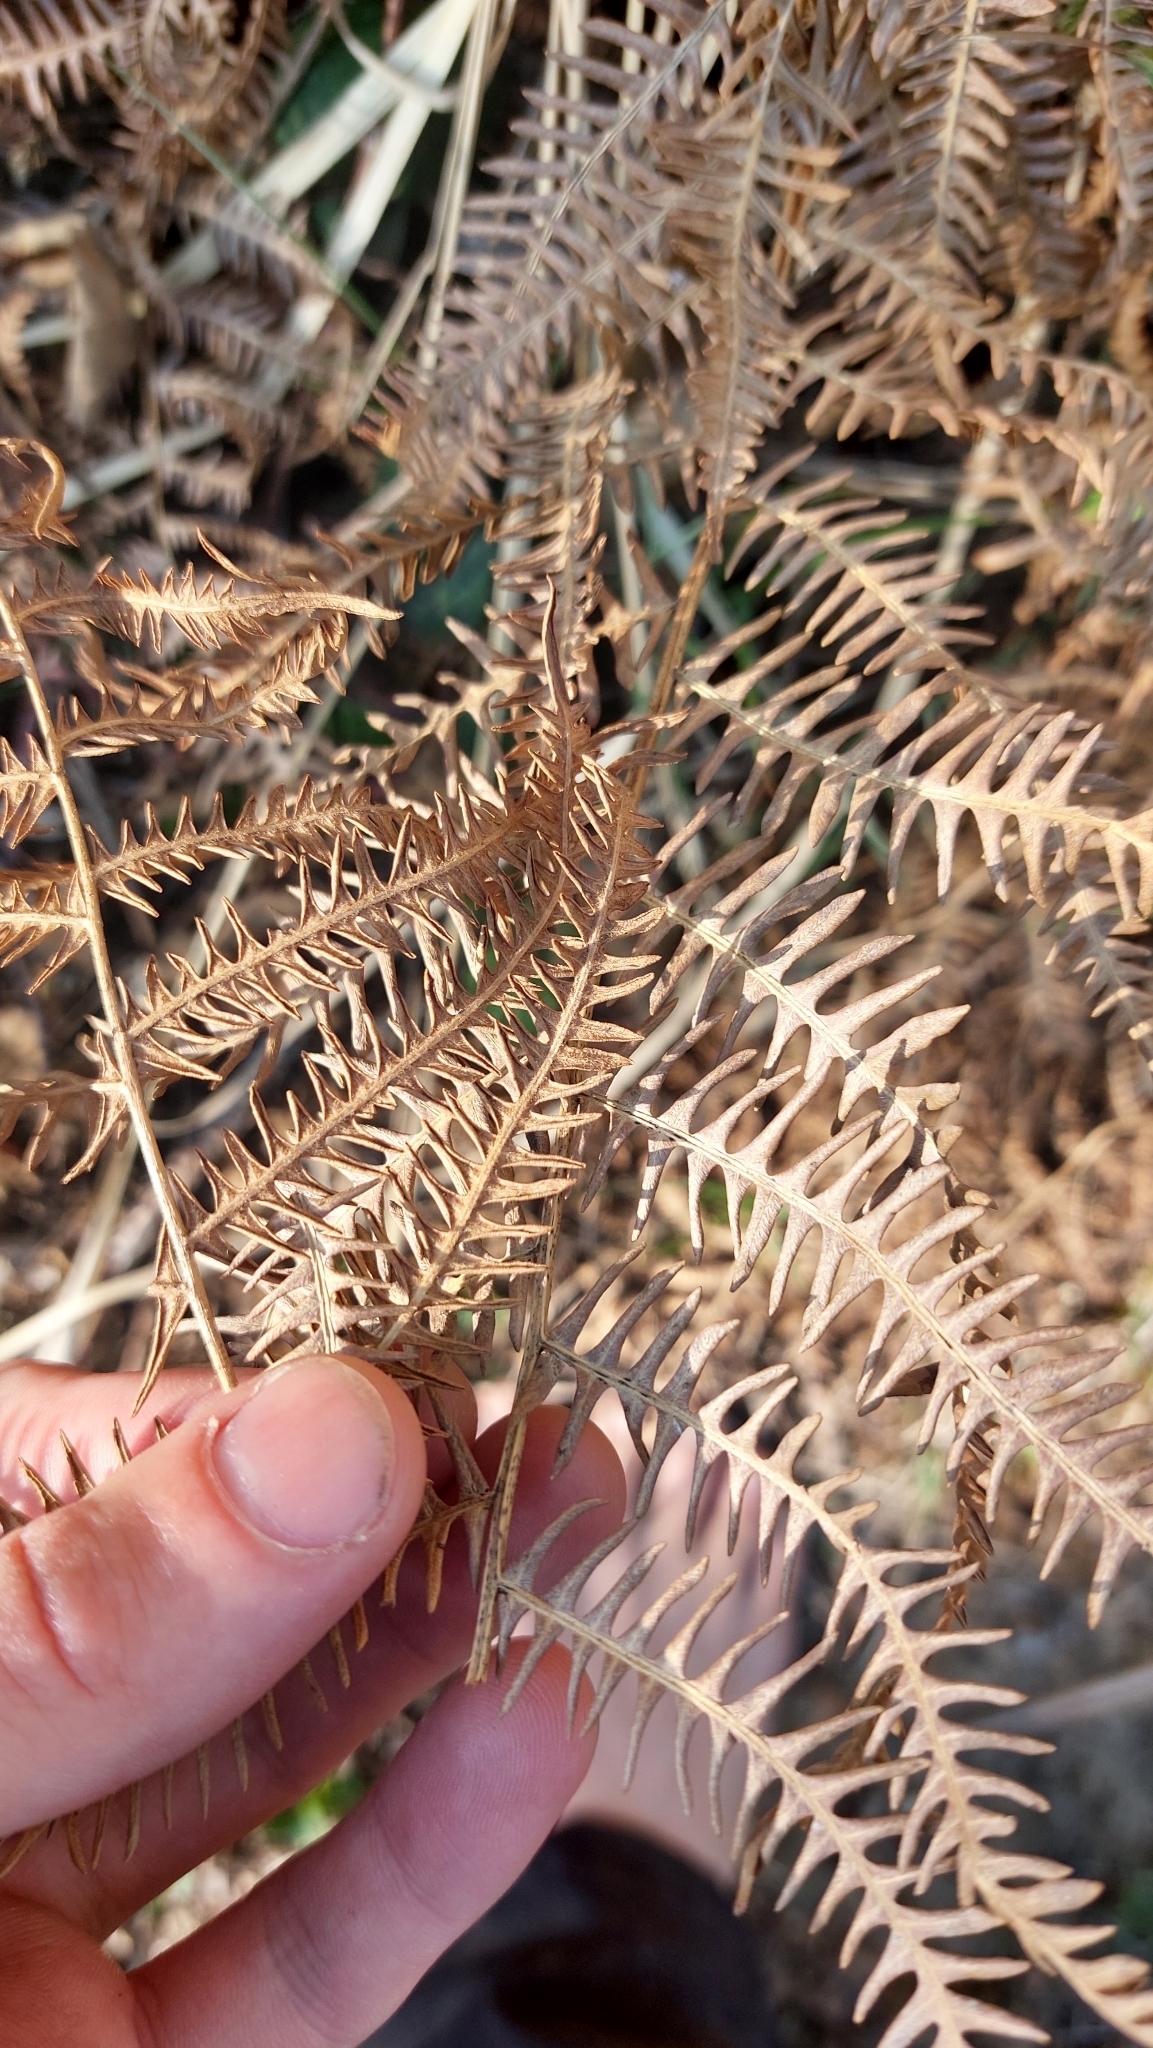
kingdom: Plantae
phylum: Tracheophyta
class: Polypodiopsida
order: Polypodiales
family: Dennstaedtiaceae
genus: Pteridium
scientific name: Pteridium aquilinum
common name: Bracken
